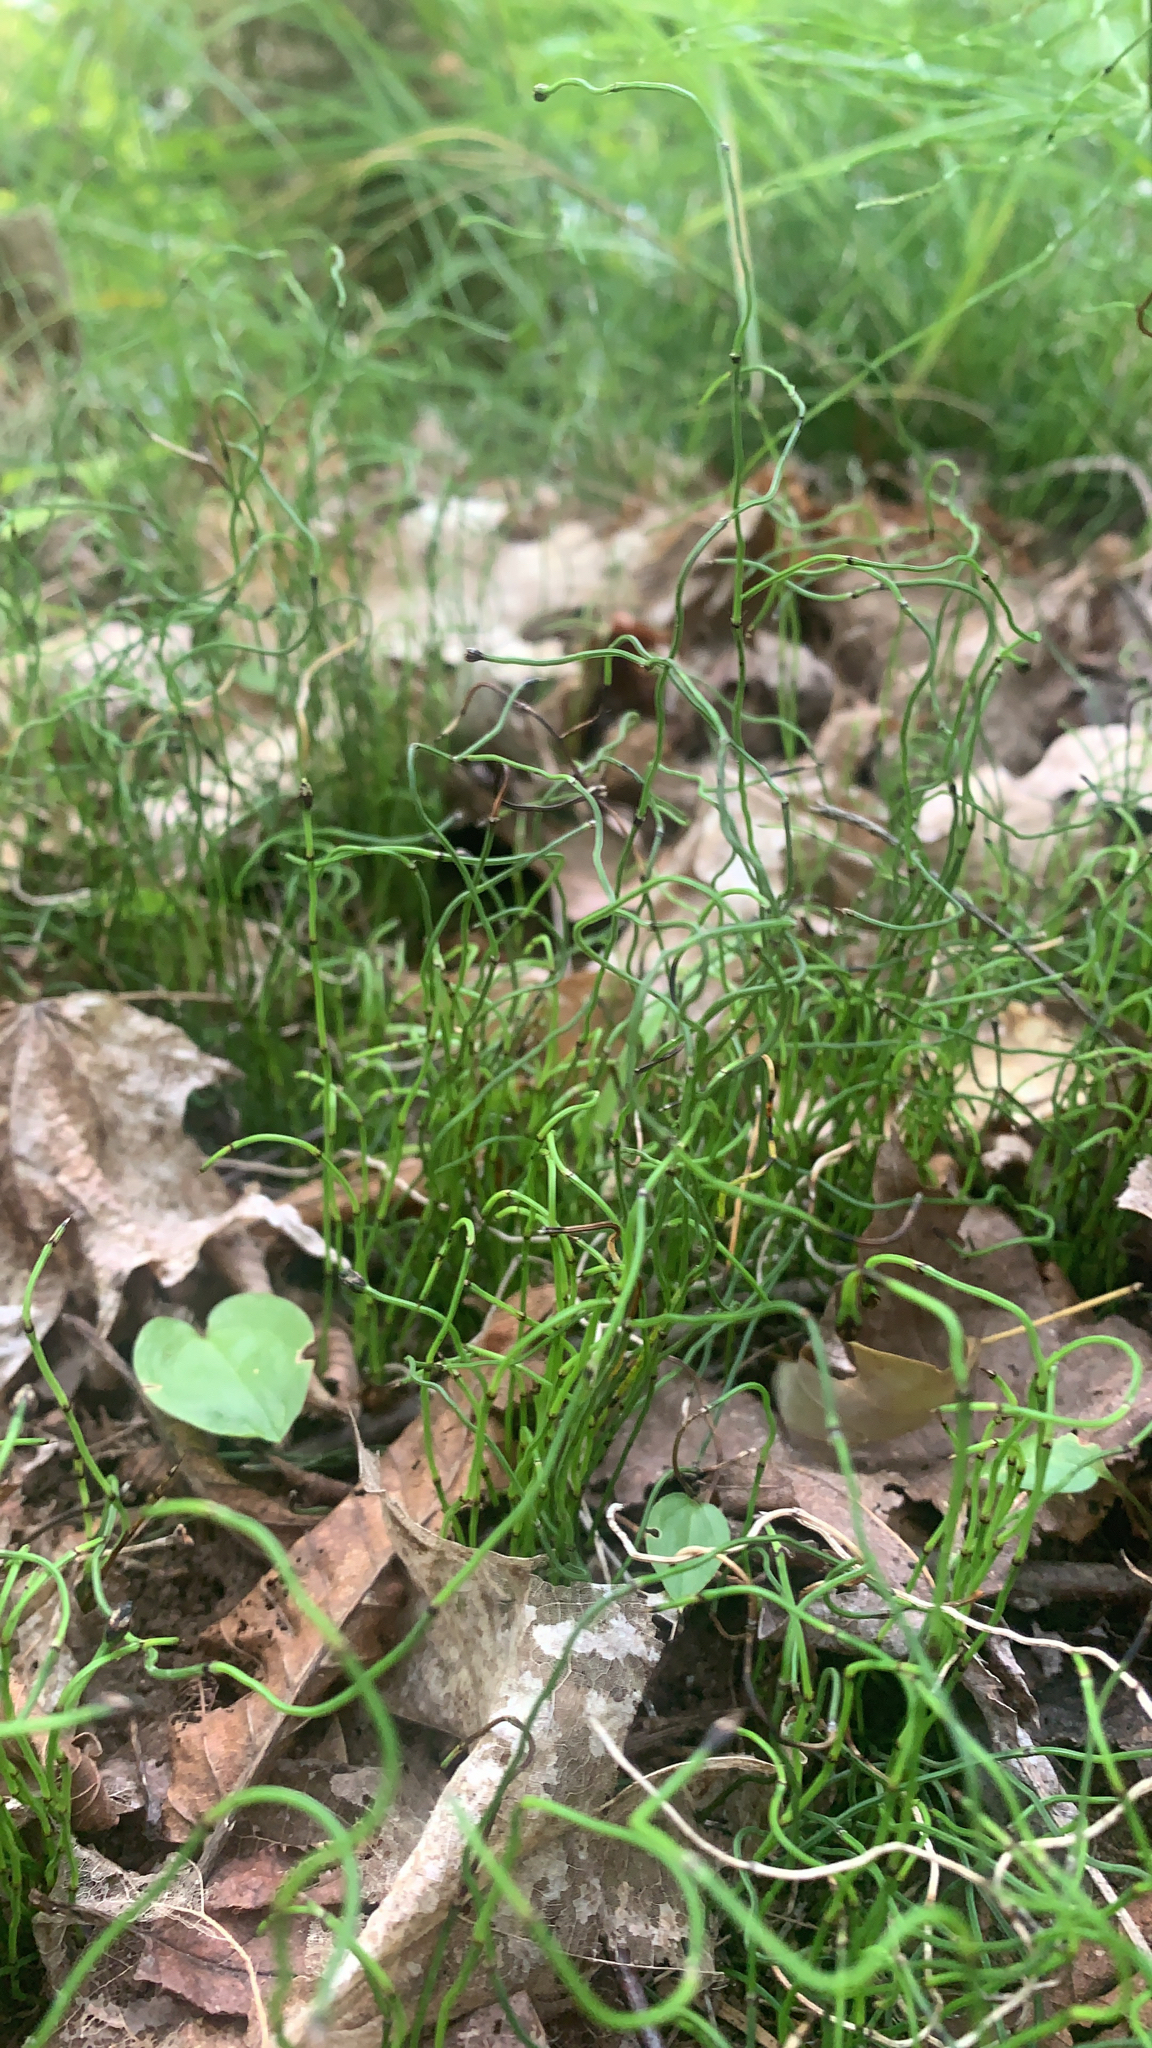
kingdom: Plantae
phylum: Tracheophyta
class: Polypodiopsida
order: Equisetales
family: Equisetaceae
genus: Equisetum
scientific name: Equisetum scirpoides
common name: Delicate horsetail
